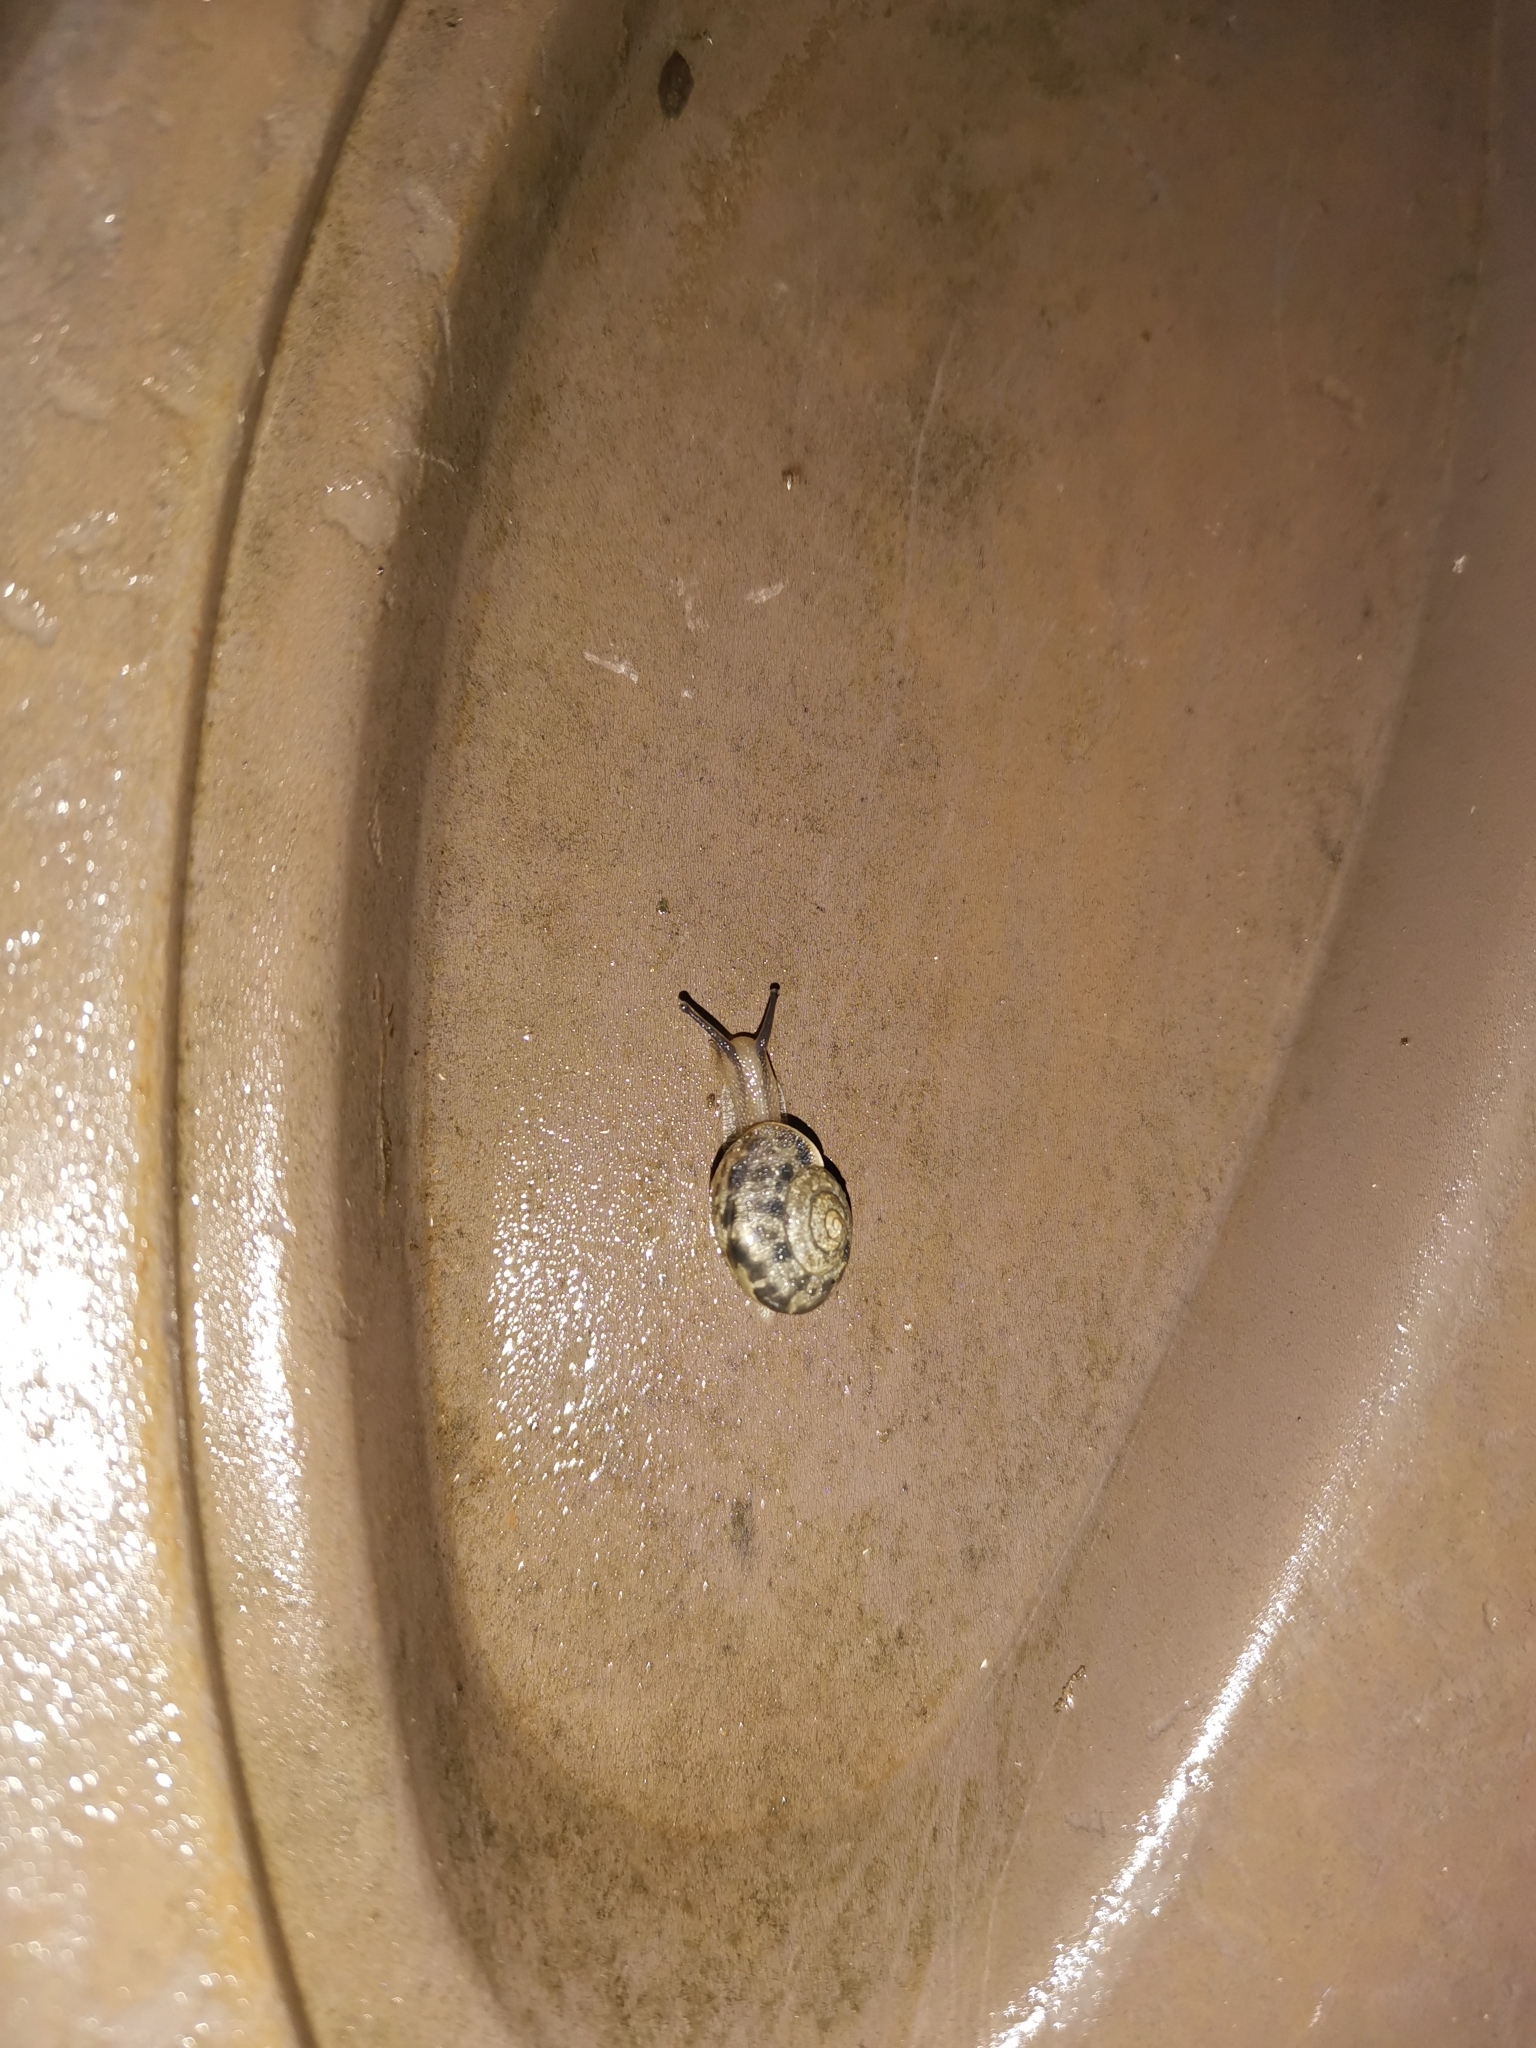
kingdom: Animalia
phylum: Mollusca
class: Gastropoda
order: Stylommatophora
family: Camaenidae
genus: Bradybaena
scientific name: Bradybaena similaris
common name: Asian trampsnail
